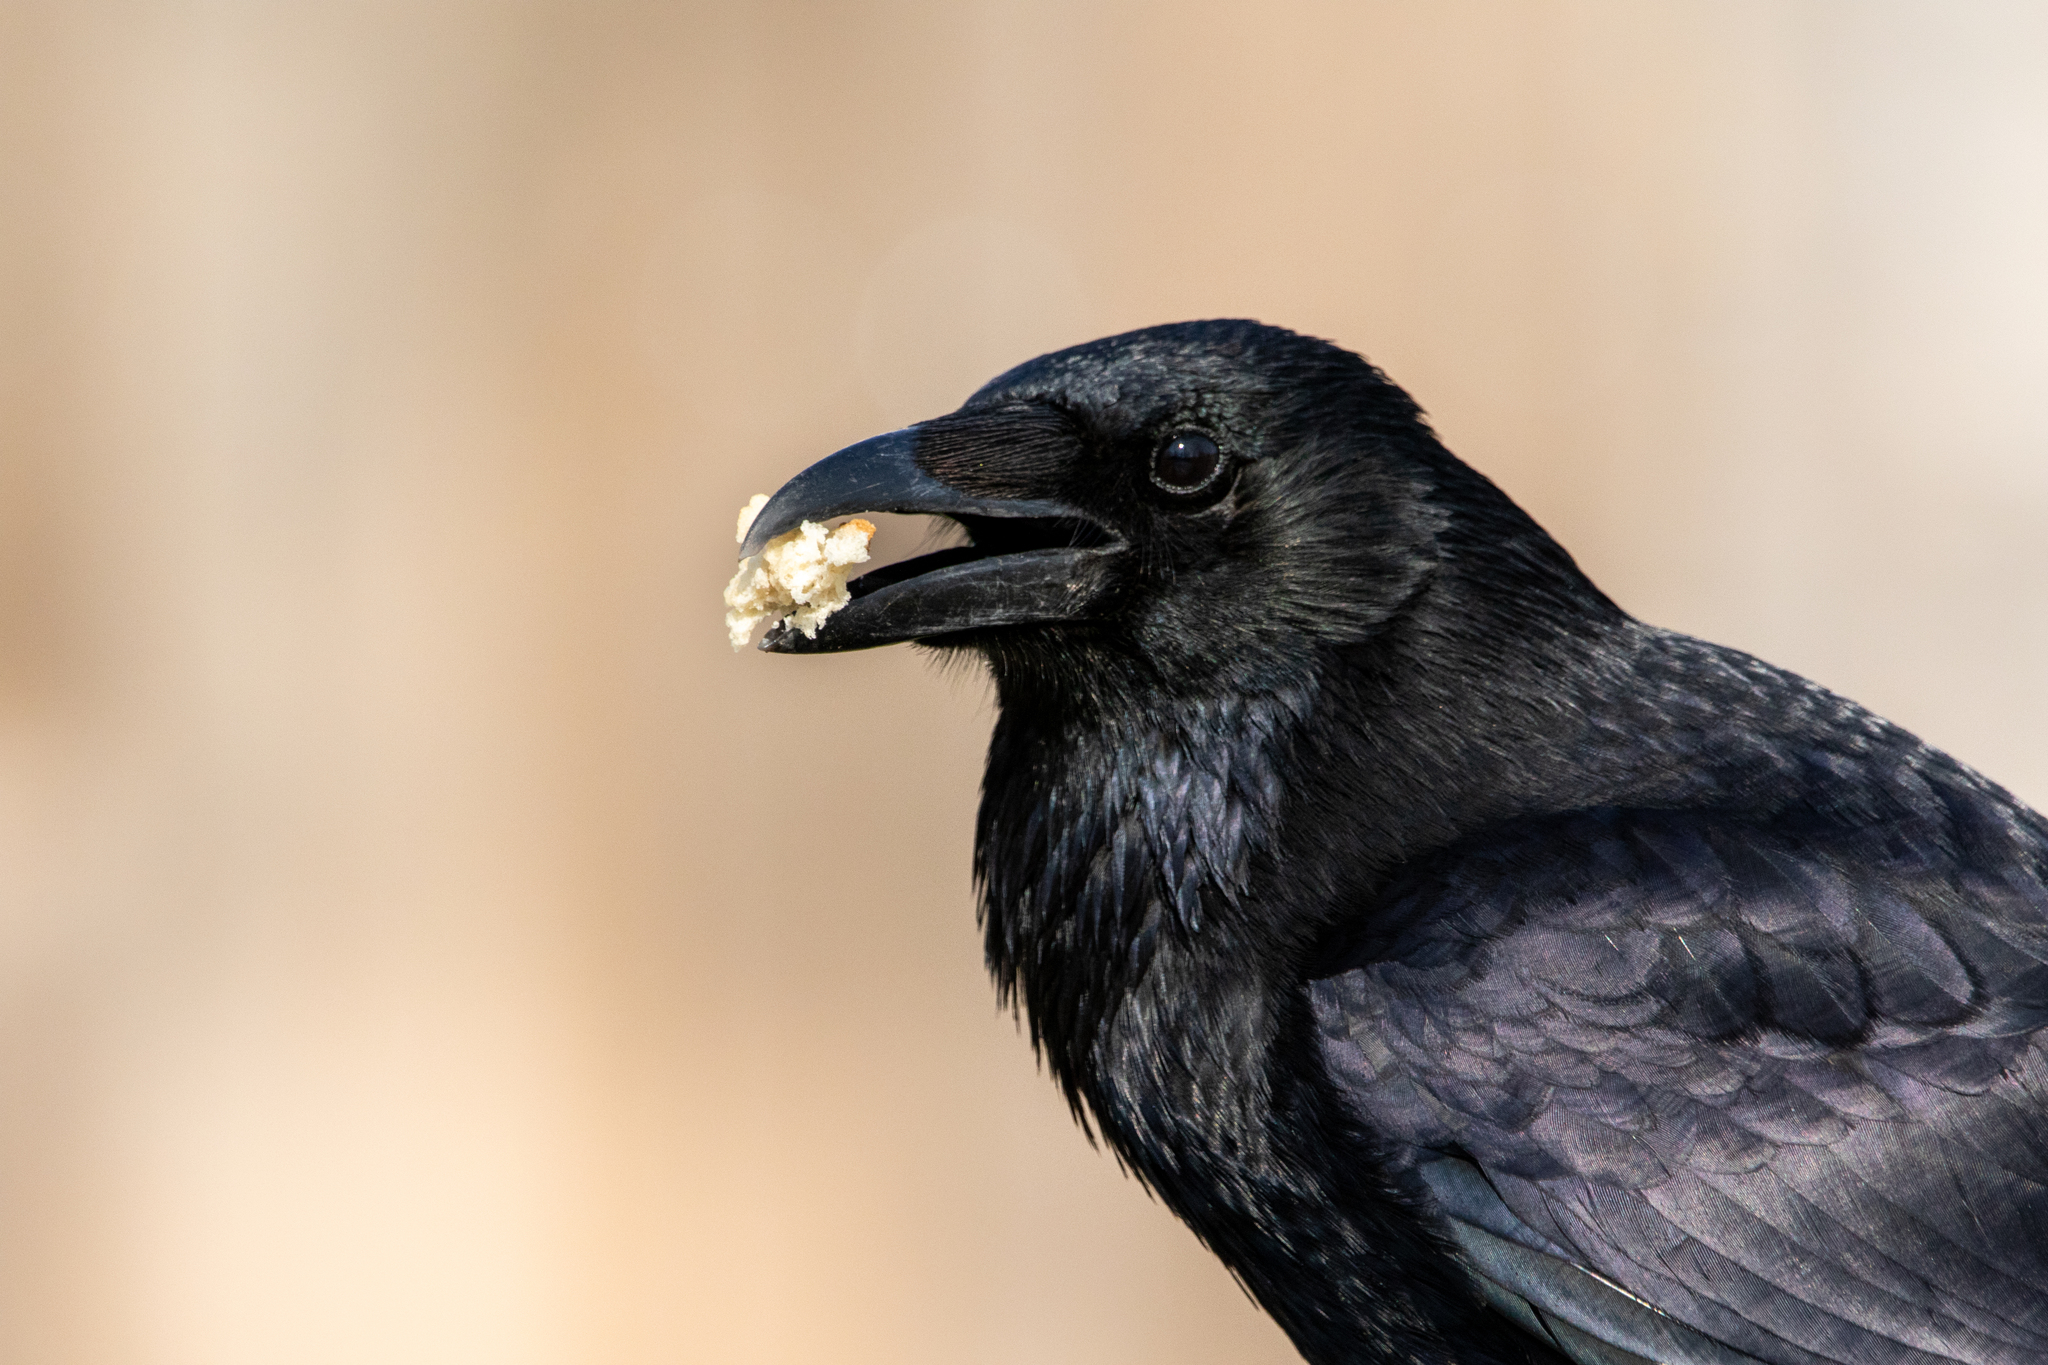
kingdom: Animalia
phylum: Chordata
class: Aves
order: Passeriformes
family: Corvidae
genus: Corvus
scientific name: Corvus corone
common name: Carrion crow
